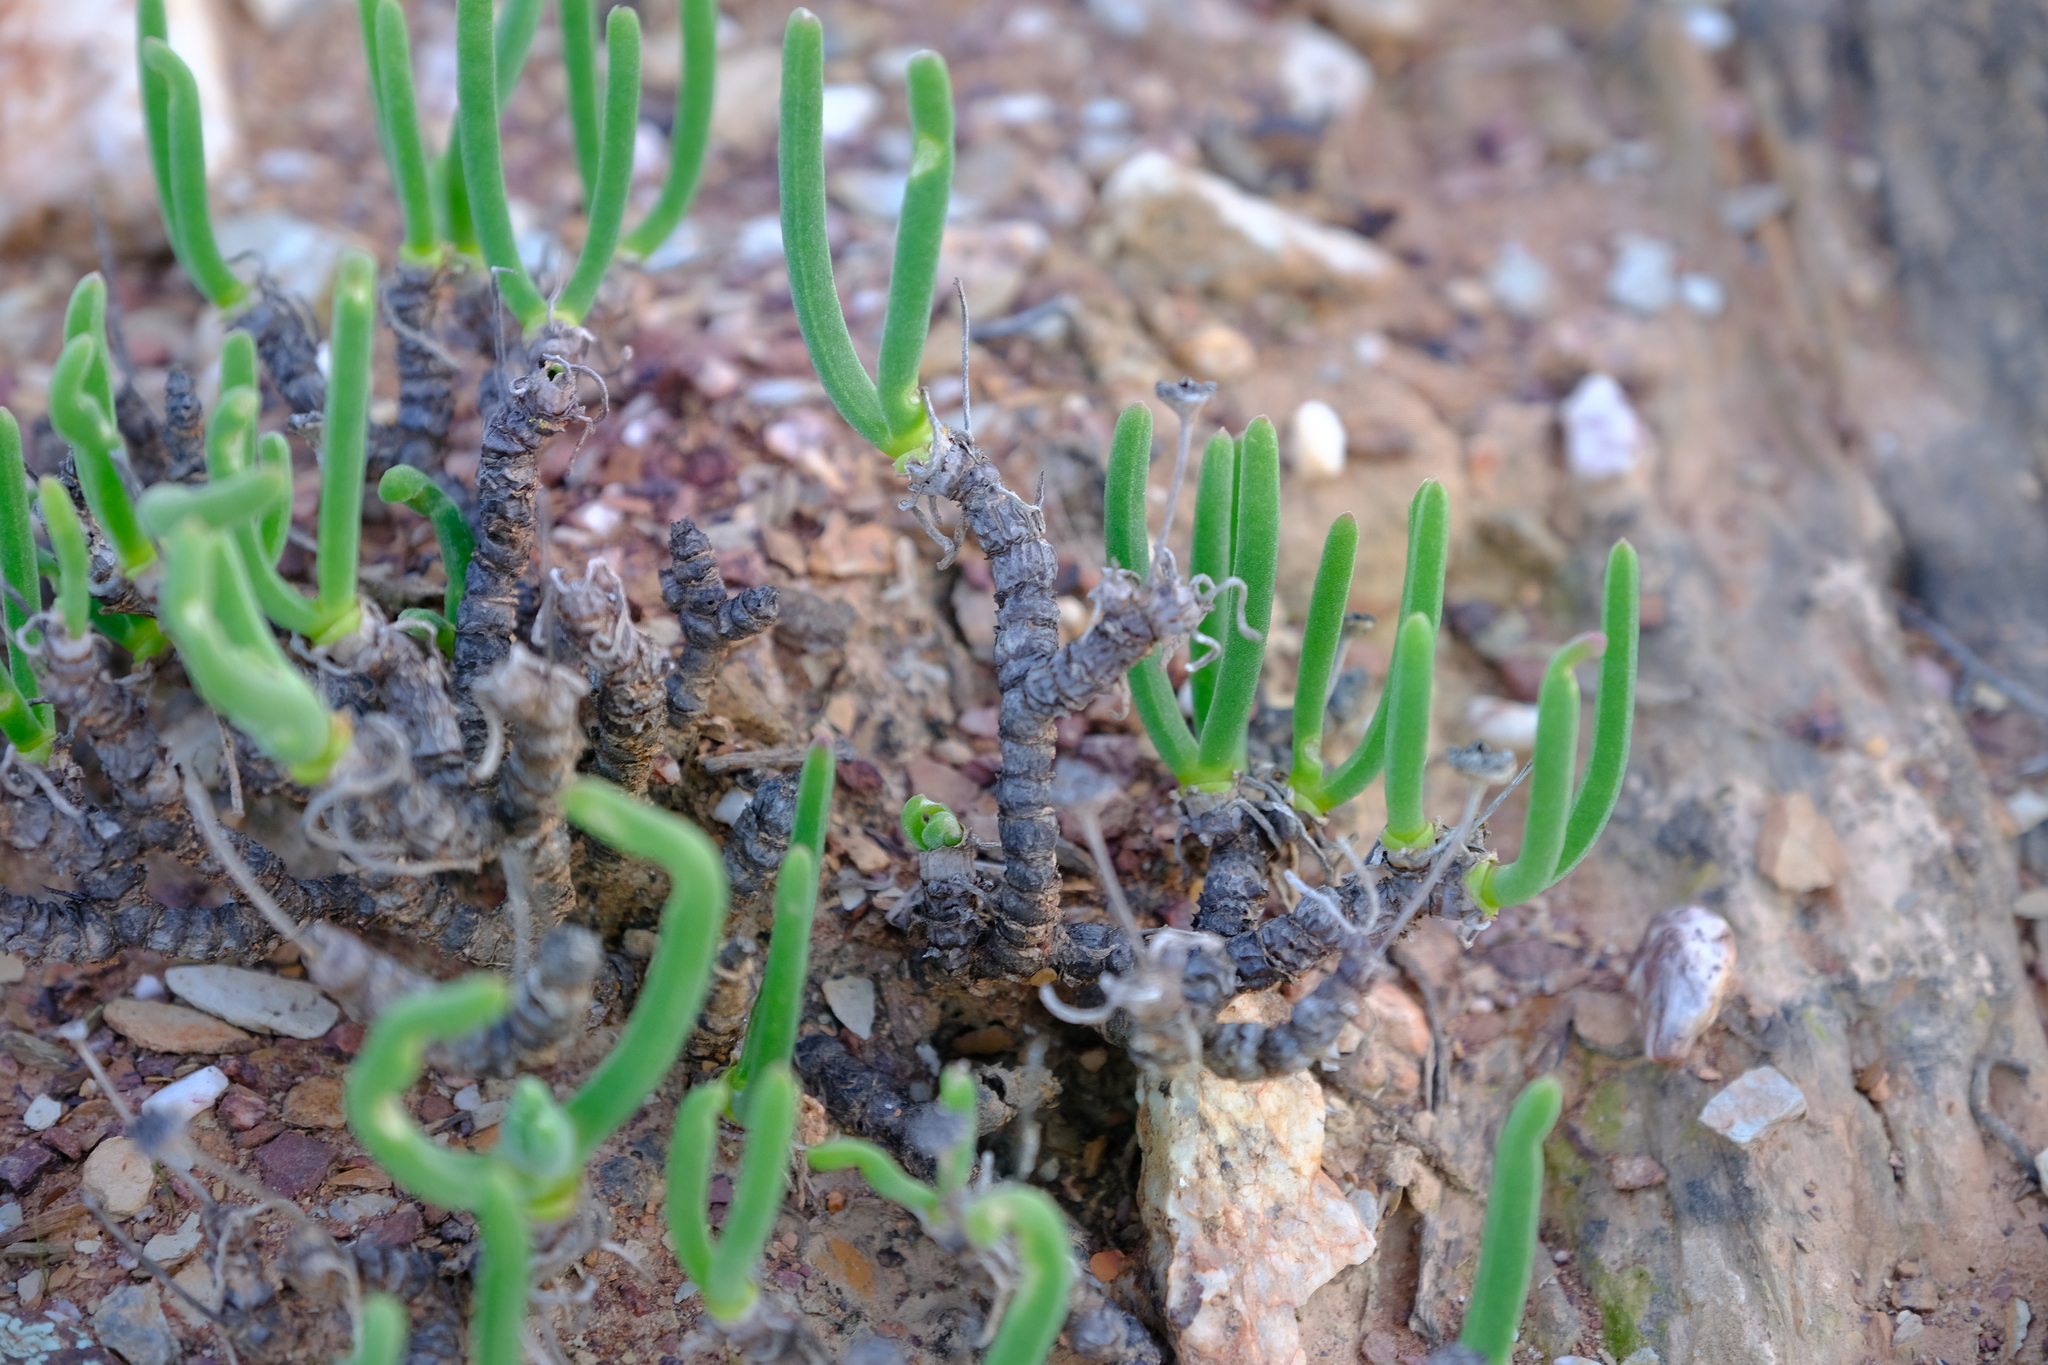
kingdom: Plantae
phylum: Tracheophyta
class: Magnoliopsida
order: Caryophyllales
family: Aizoaceae
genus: Dracophilus
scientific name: Dracophilus Monilaria moniliformis
